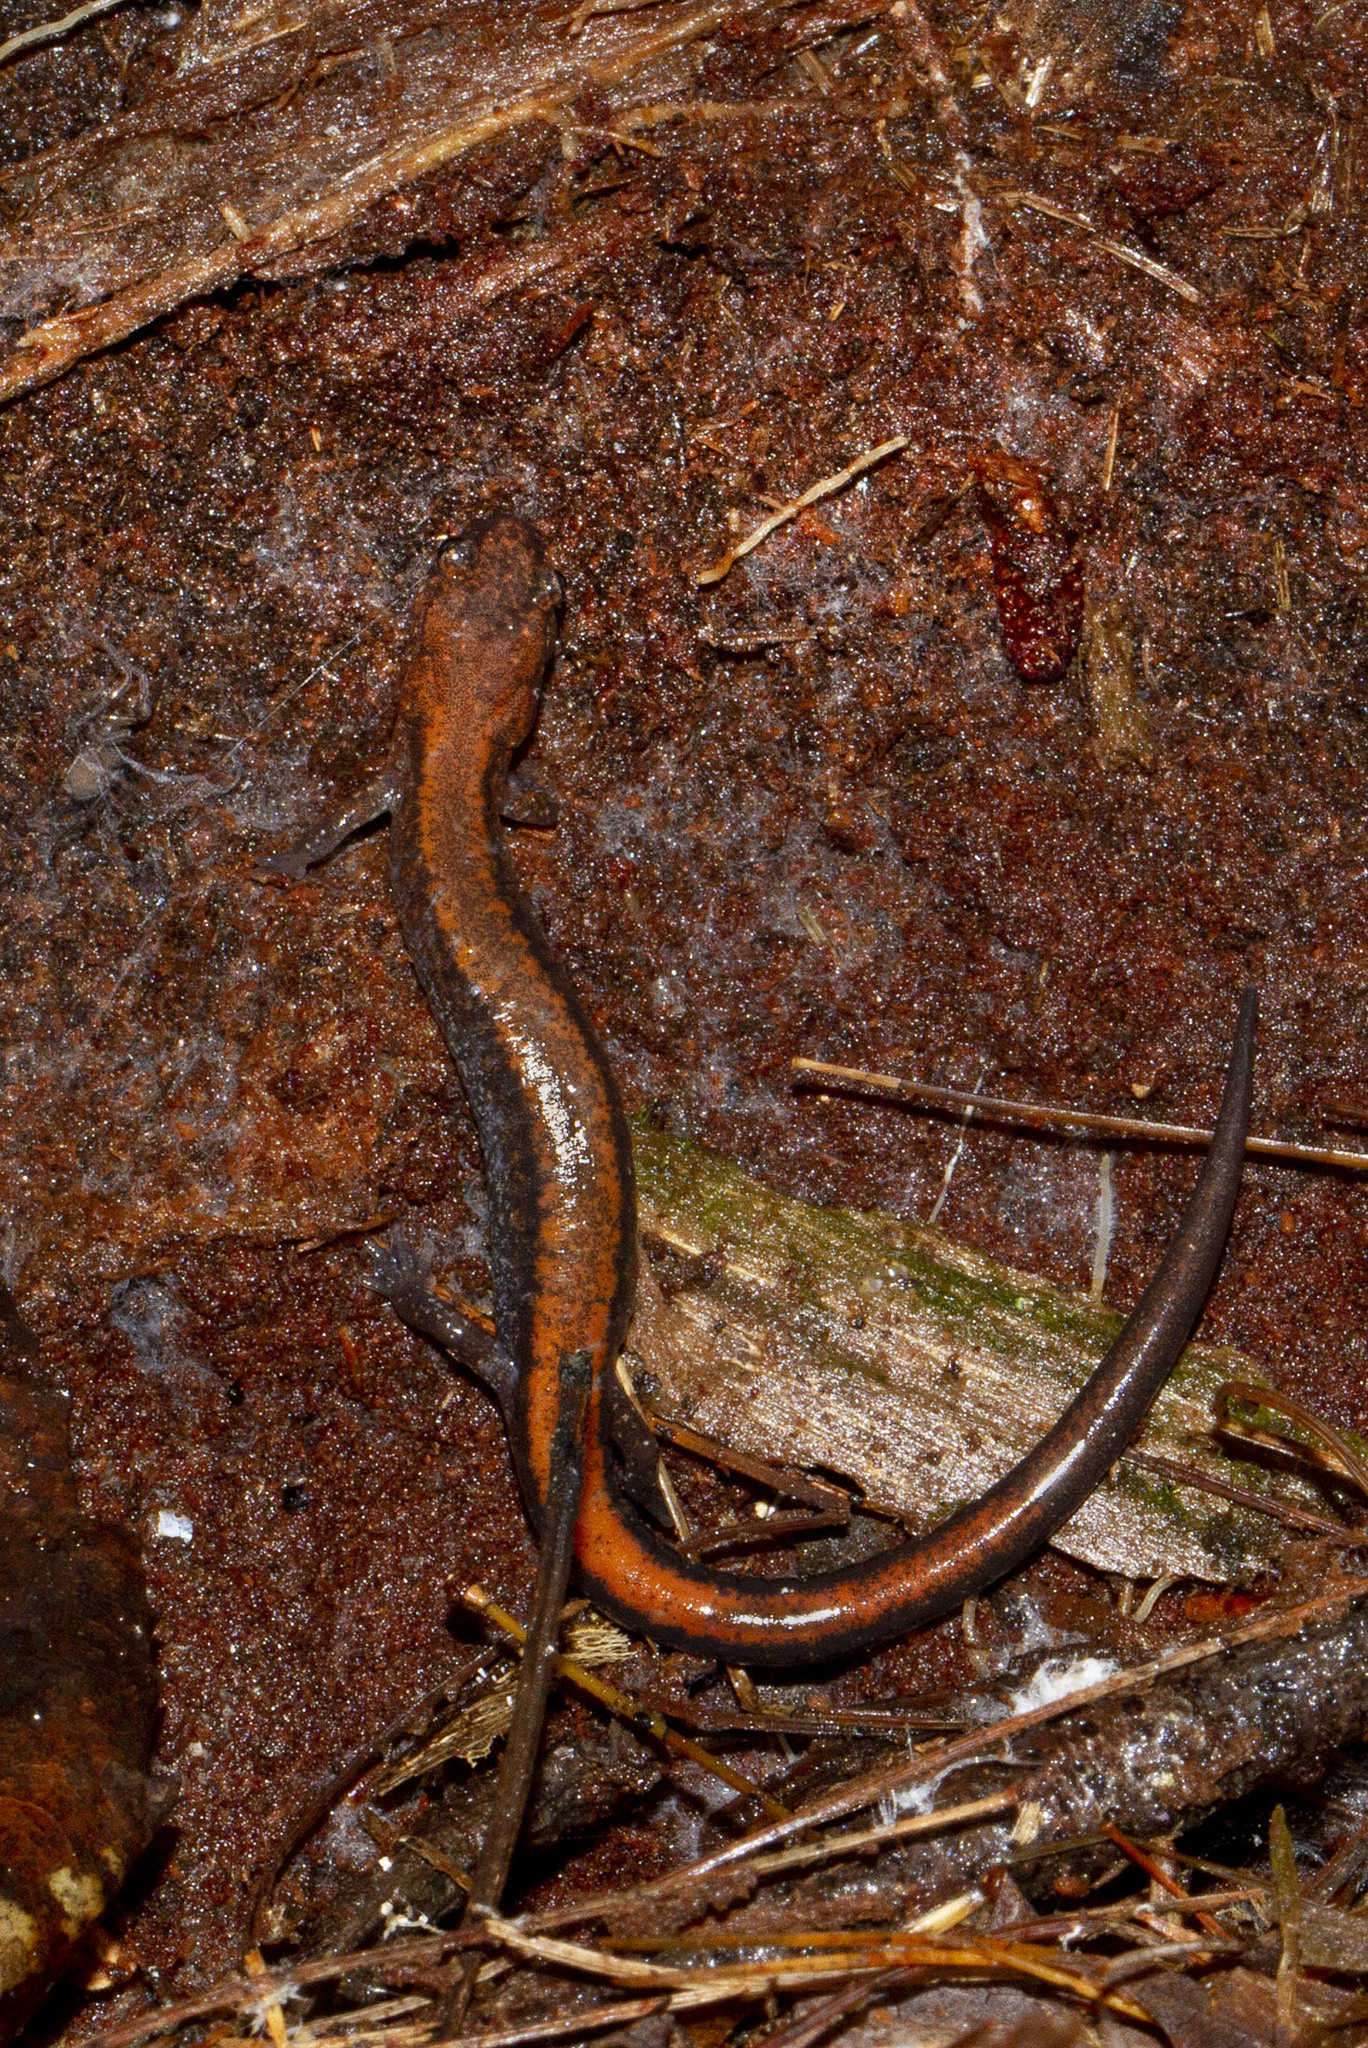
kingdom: Animalia
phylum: Chordata
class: Amphibia
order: Caudata
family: Plethodontidae
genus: Plethodon
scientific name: Plethodon cinereus
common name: Redback salamander
